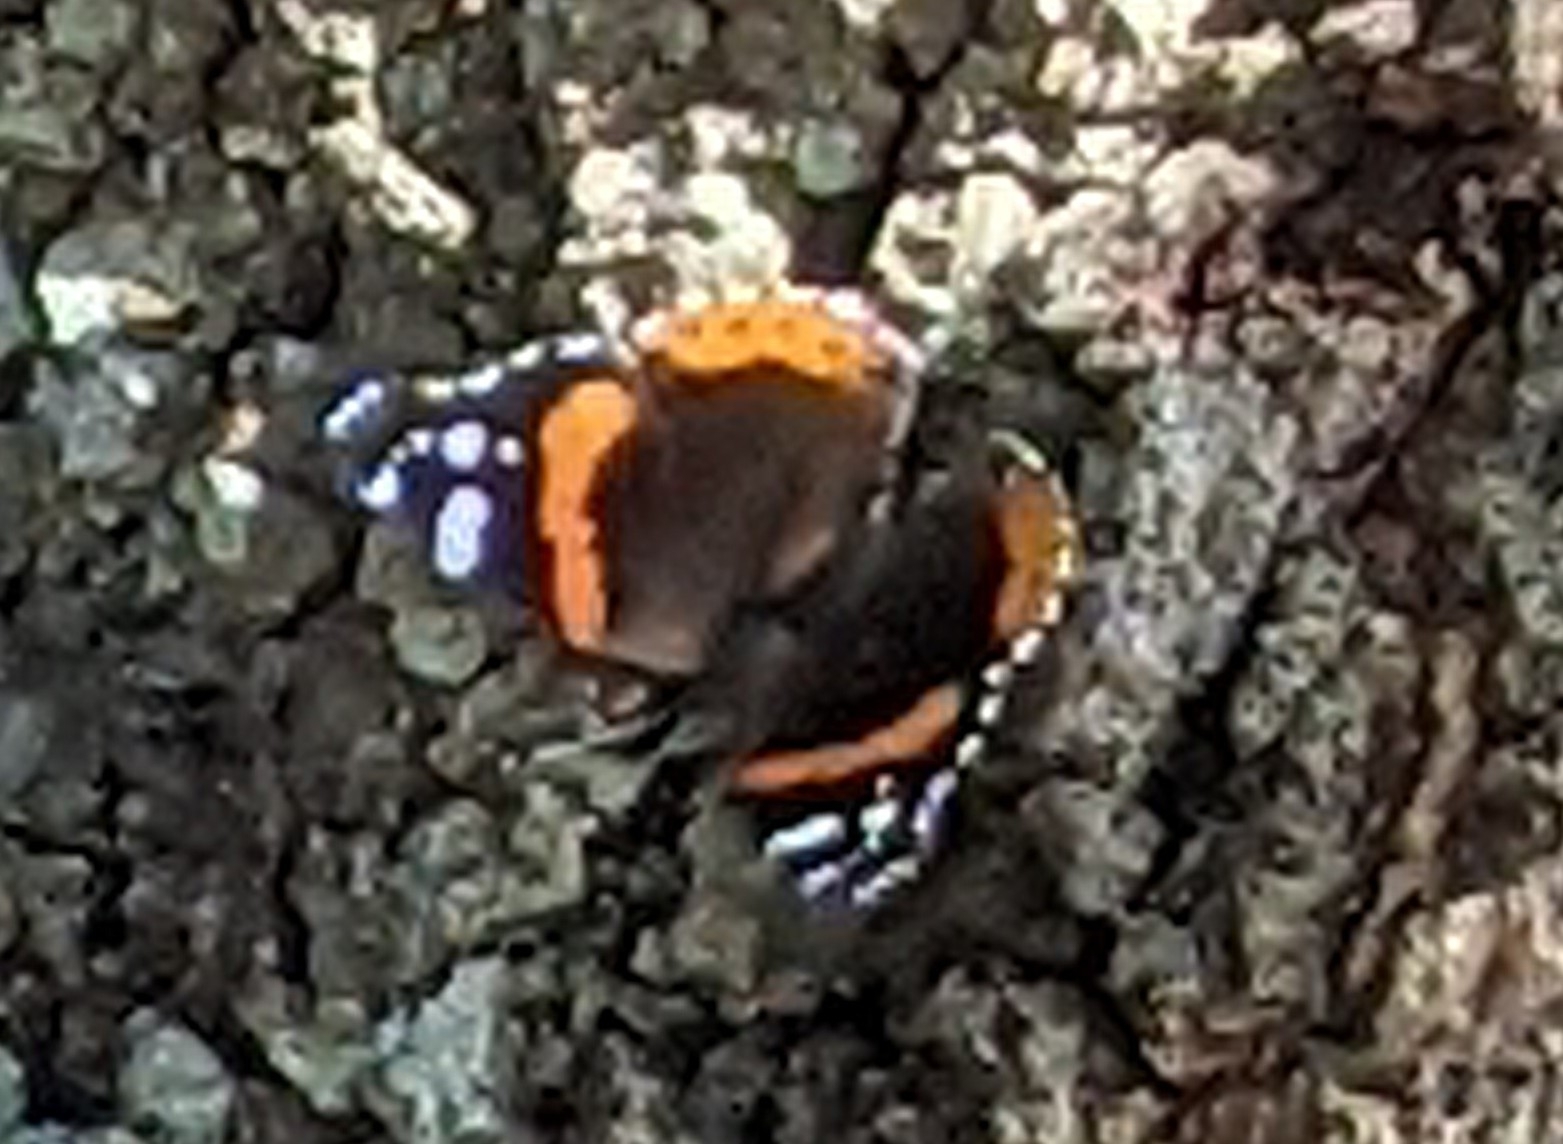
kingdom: Animalia
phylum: Arthropoda
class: Insecta
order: Lepidoptera
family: Nymphalidae
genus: Vanessa
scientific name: Vanessa atalanta
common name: Red admiral
